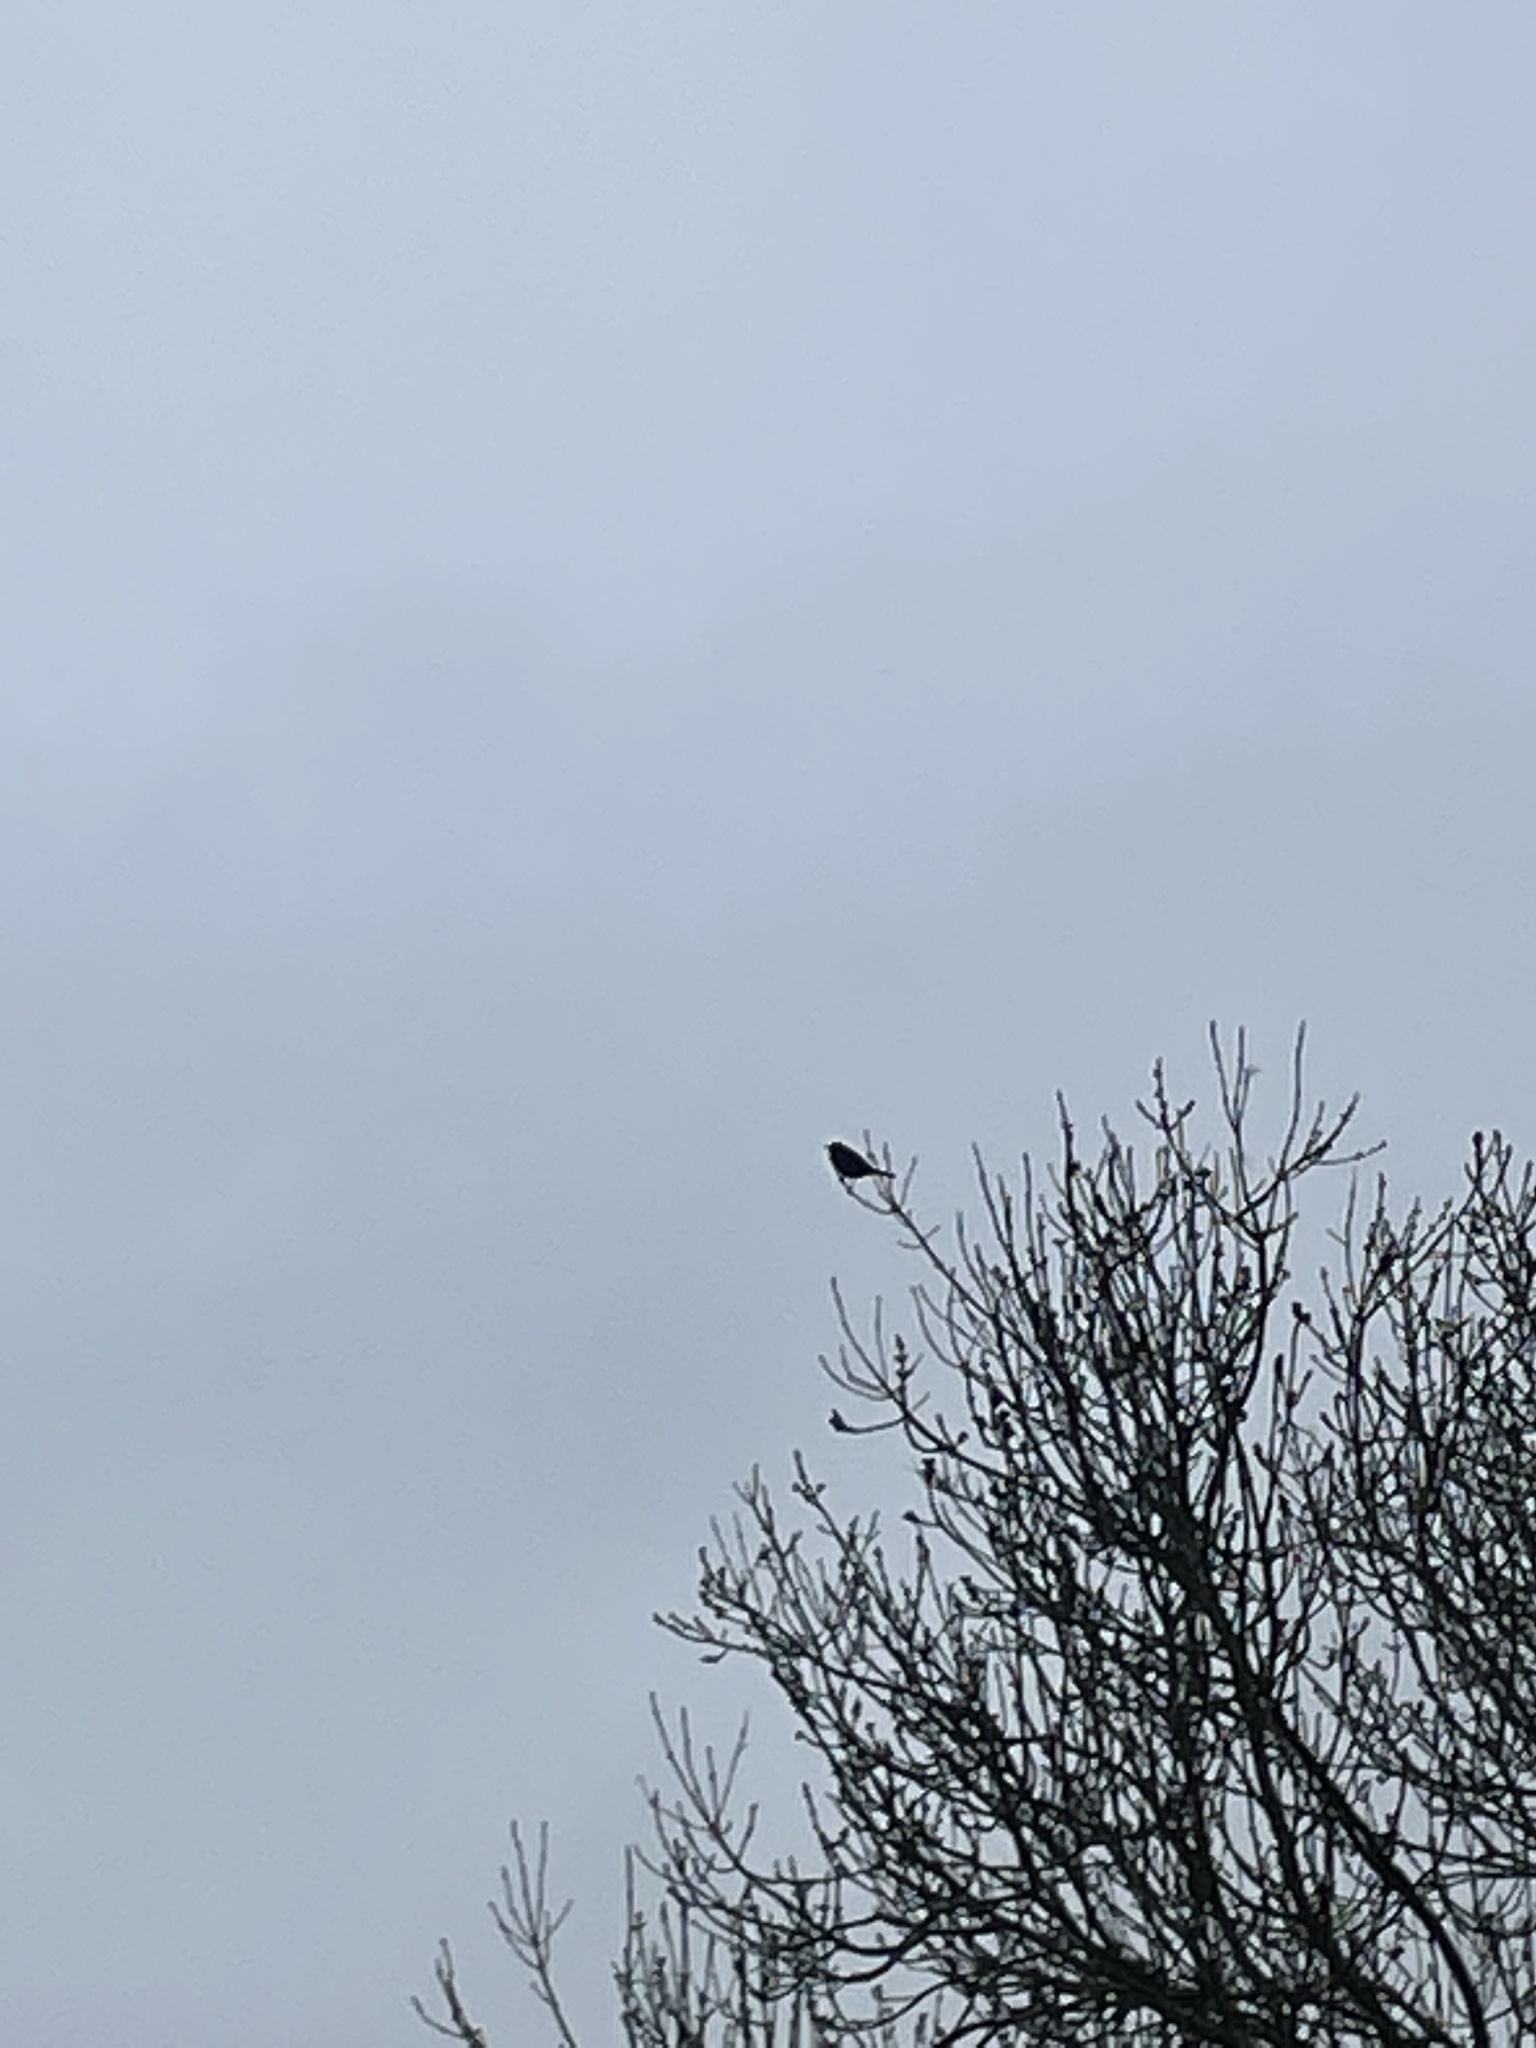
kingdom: Animalia
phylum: Chordata
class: Aves
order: Passeriformes
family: Turdidae
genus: Turdus
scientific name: Turdus merula
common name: Common blackbird
